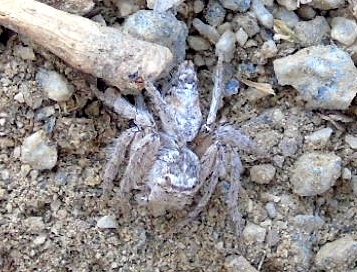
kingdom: Animalia
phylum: Arthropoda
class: Arachnida
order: Araneae
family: Oxyopidae
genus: Hamataliwa
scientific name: Hamataliwa
